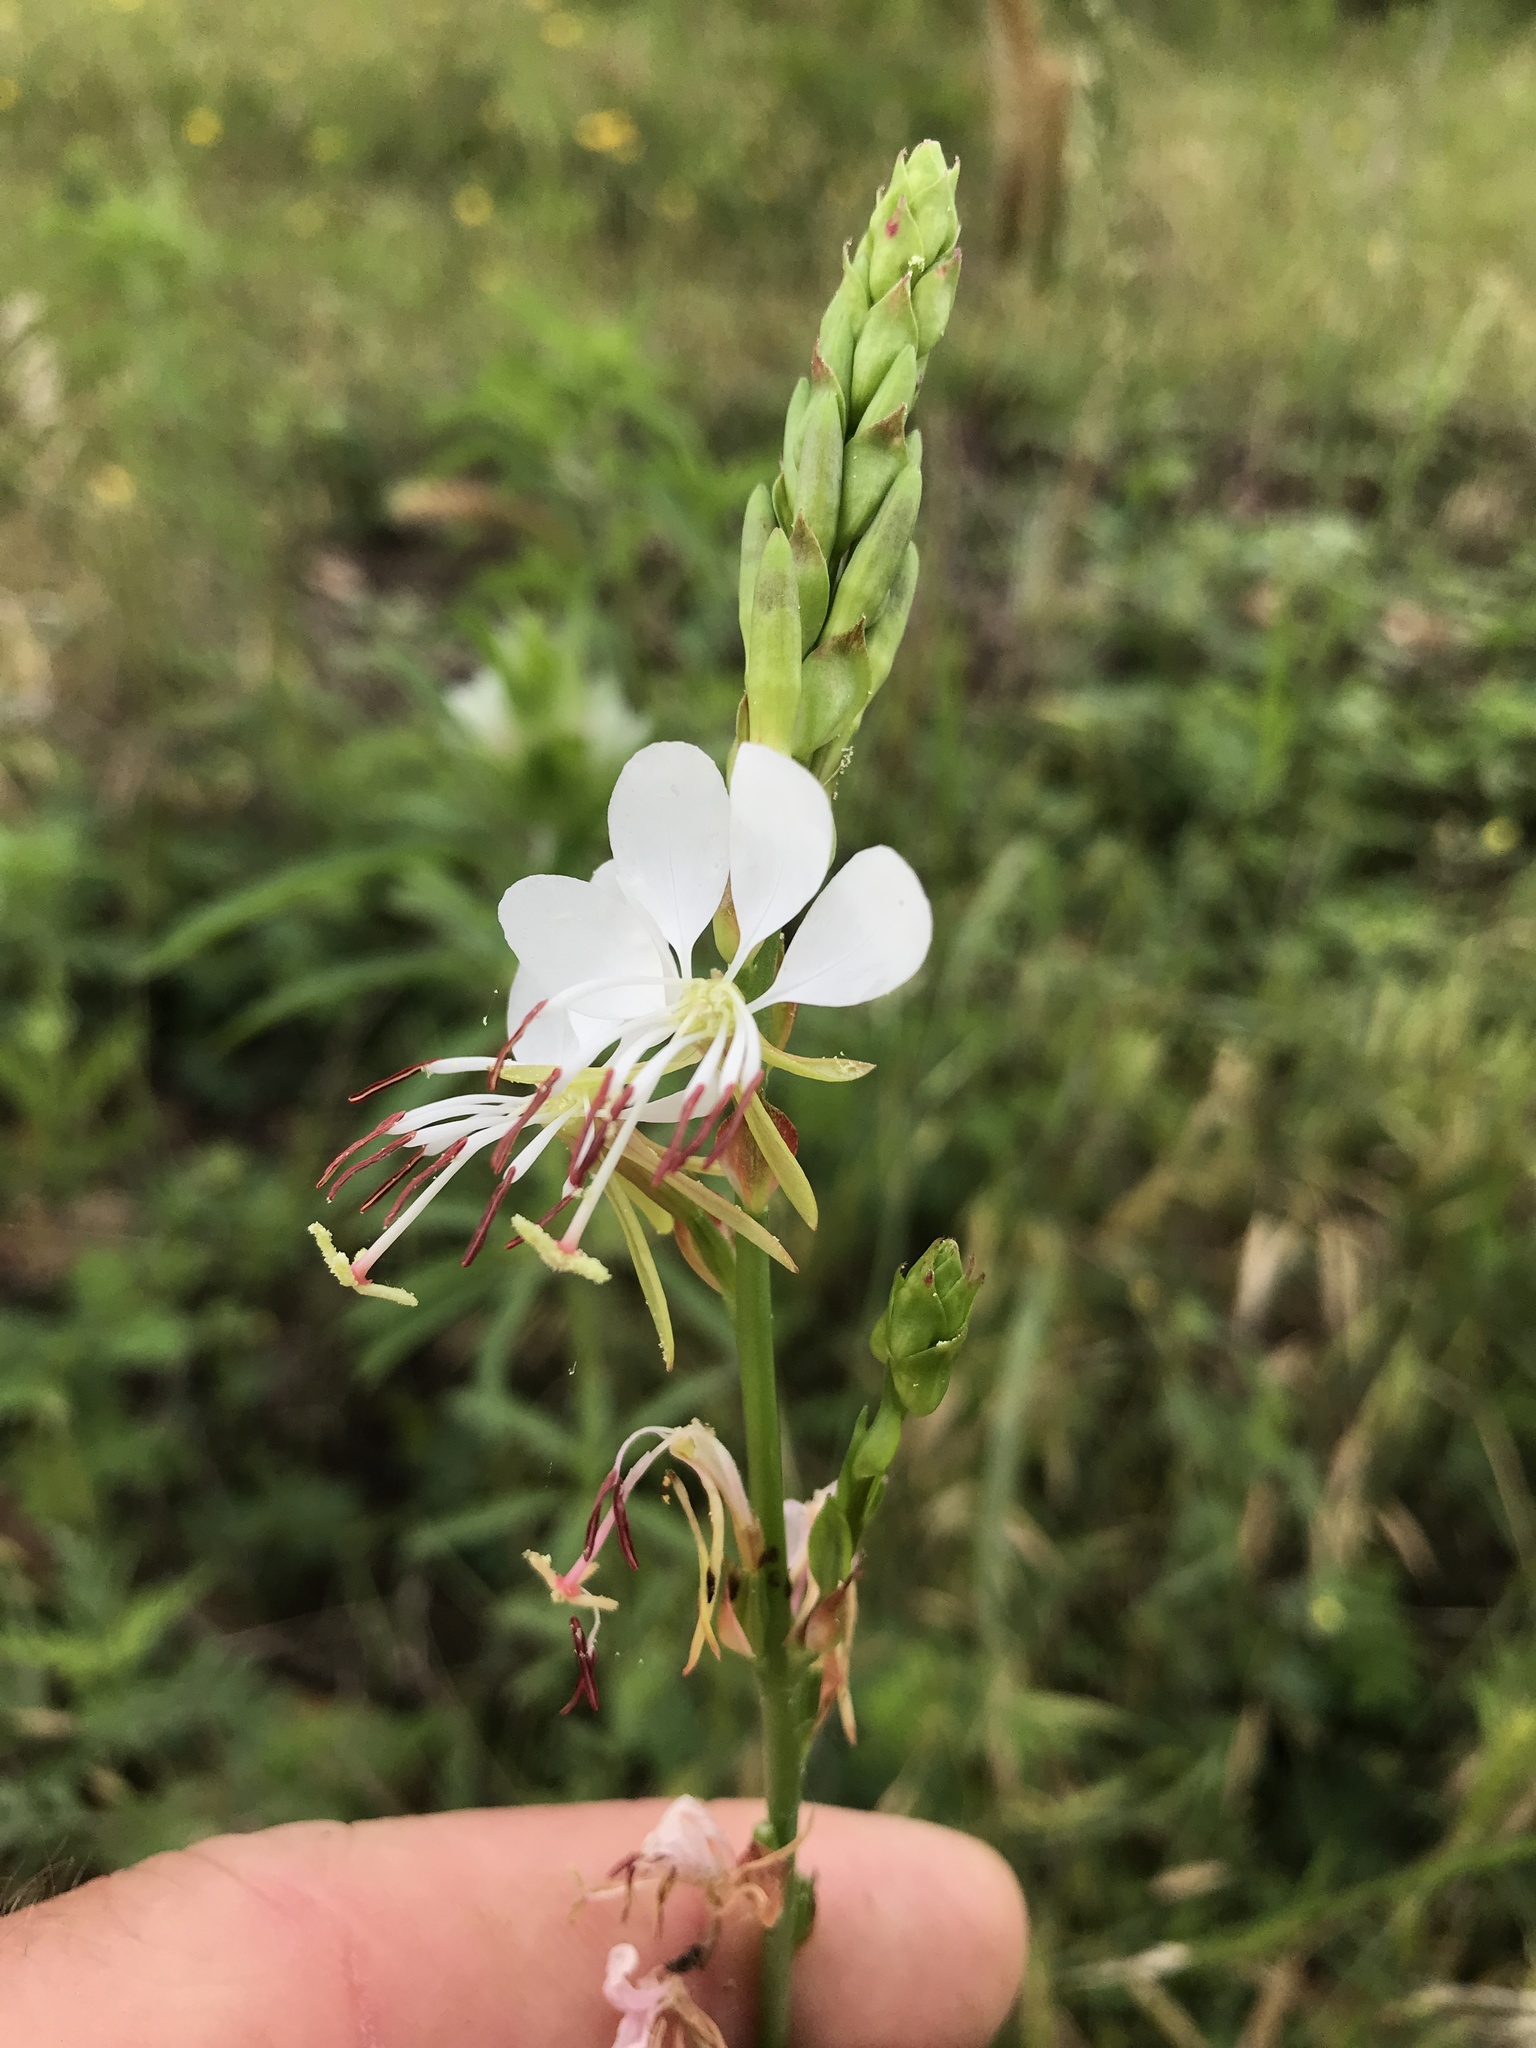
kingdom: Plantae
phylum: Tracheophyta
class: Magnoliopsida
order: Myrtales
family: Onagraceae
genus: Oenothera
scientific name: Oenothera suffulta
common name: Kisses
